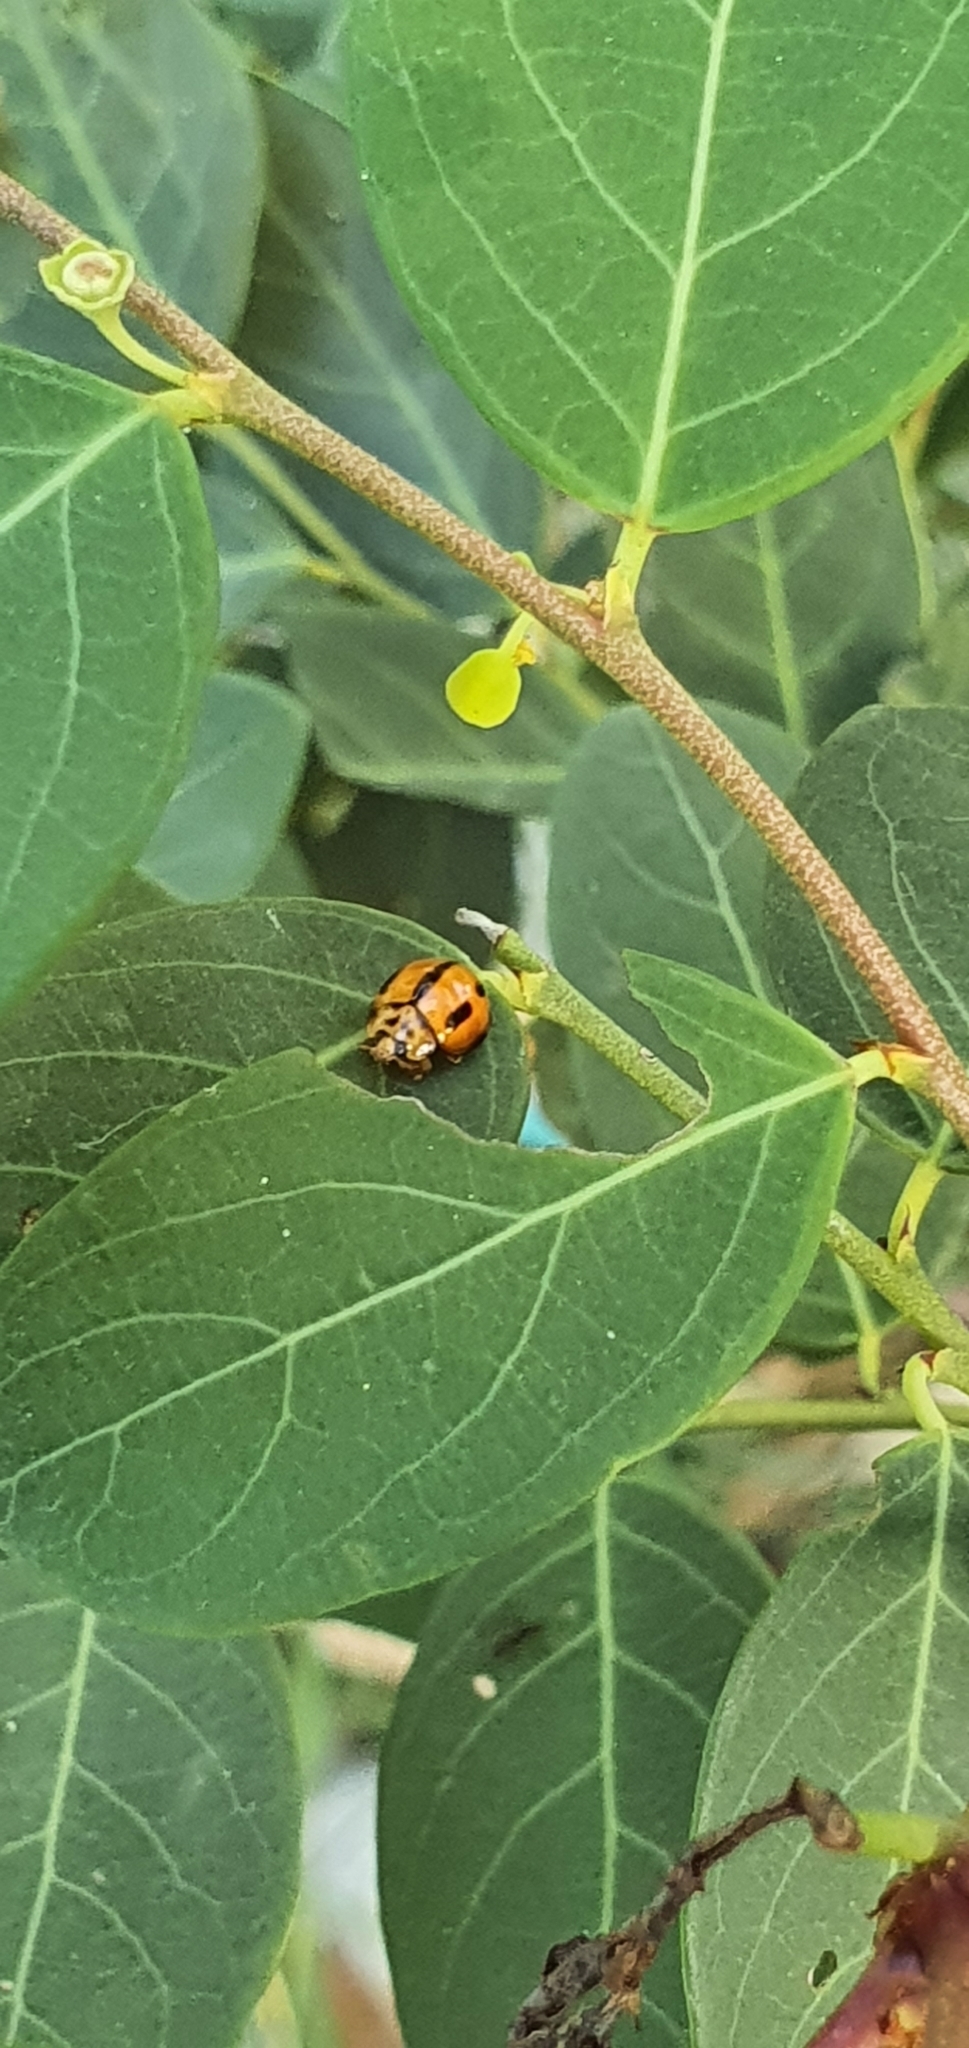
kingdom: Animalia
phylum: Arthropoda
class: Insecta
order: Coleoptera
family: Coccinellidae
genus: Coelophora
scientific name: Coelophora inaequalis
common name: Common australian lady beetle
